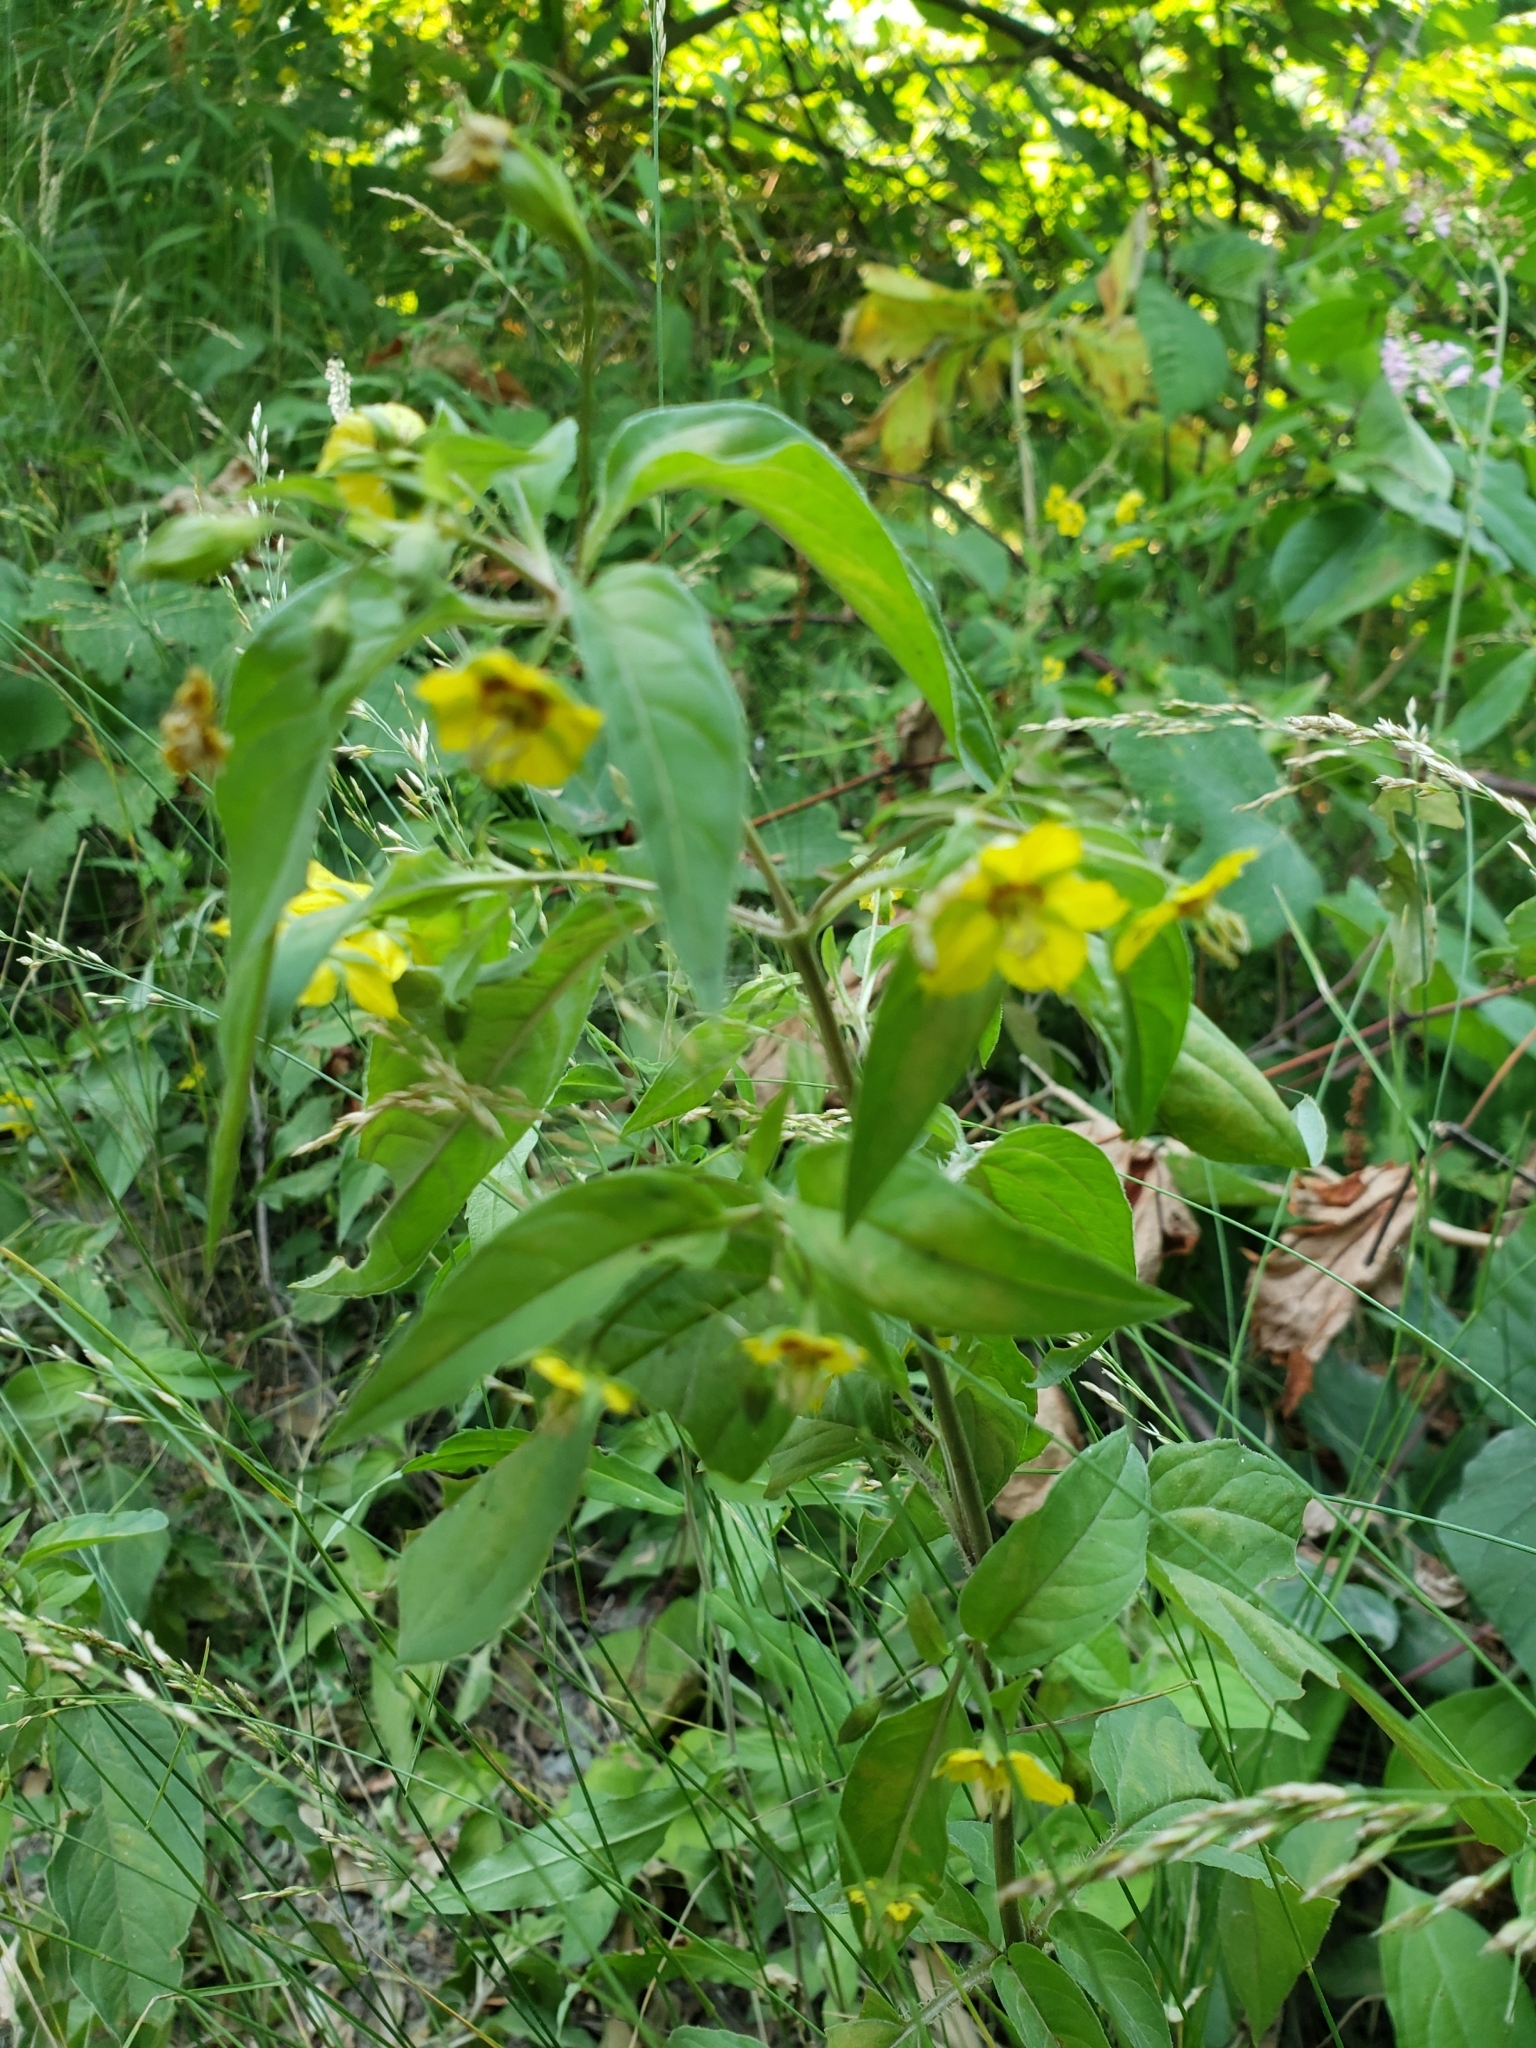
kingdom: Plantae
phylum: Tracheophyta
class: Magnoliopsida
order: Ericales
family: Primulaceae
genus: Lysimachia
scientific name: Lysimachia ciliata
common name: Fringed loosestrife
